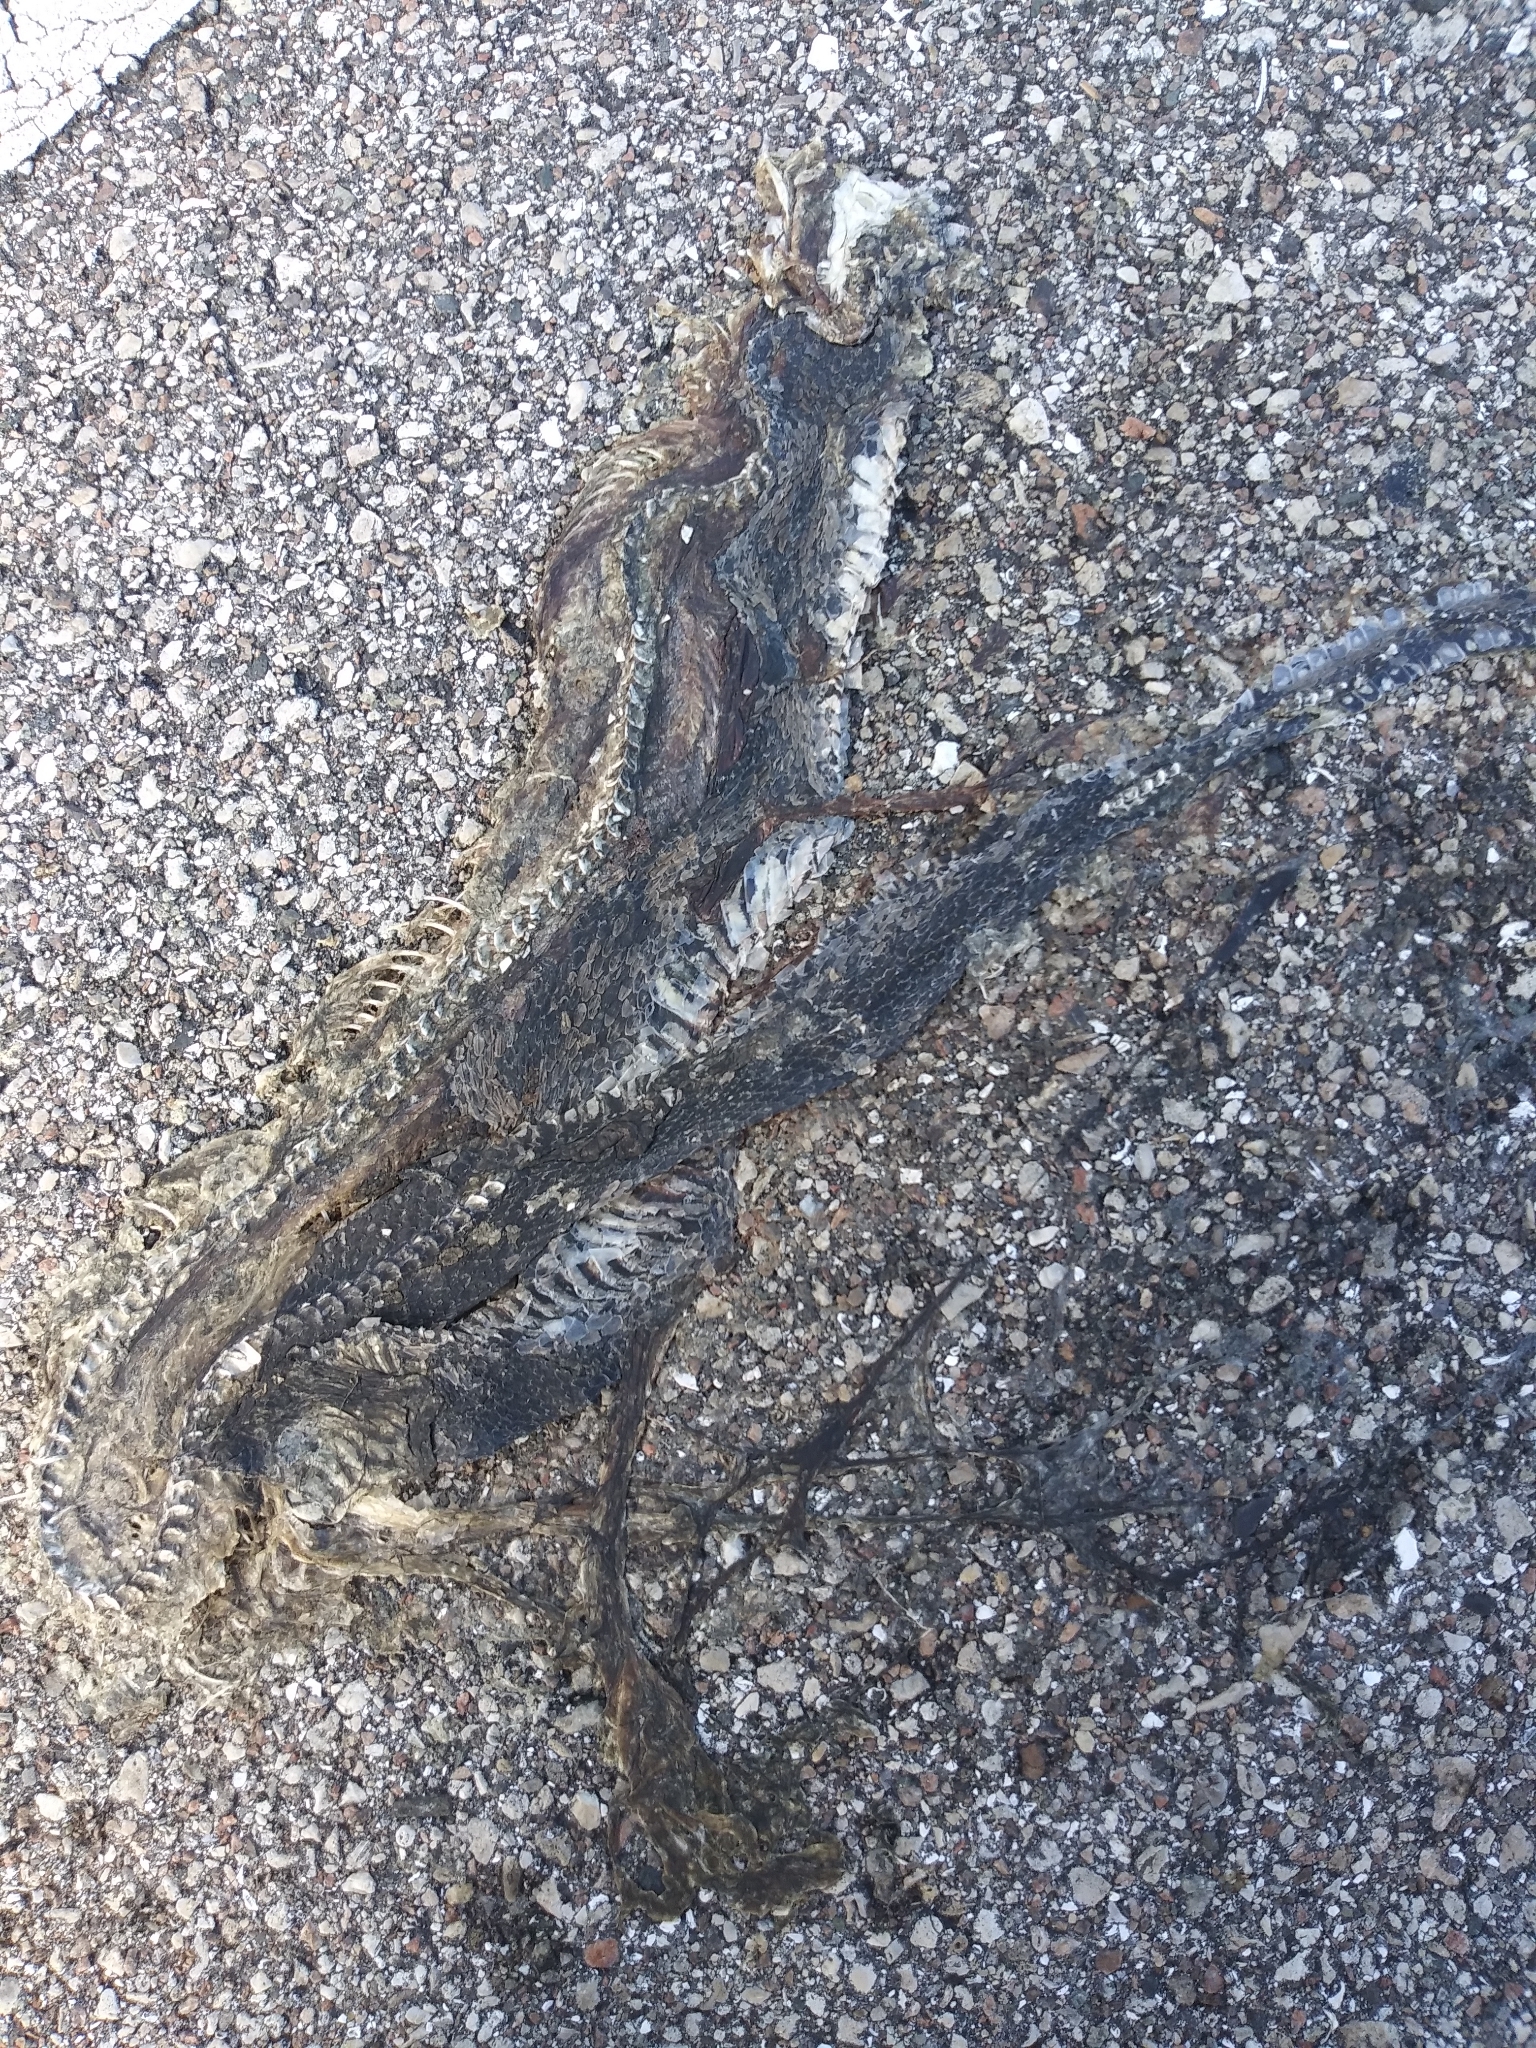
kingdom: Animalia
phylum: Chordata
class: Squamata
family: Colubridae
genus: Nerodia
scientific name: Nerodia fasciata
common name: Southern water snake
